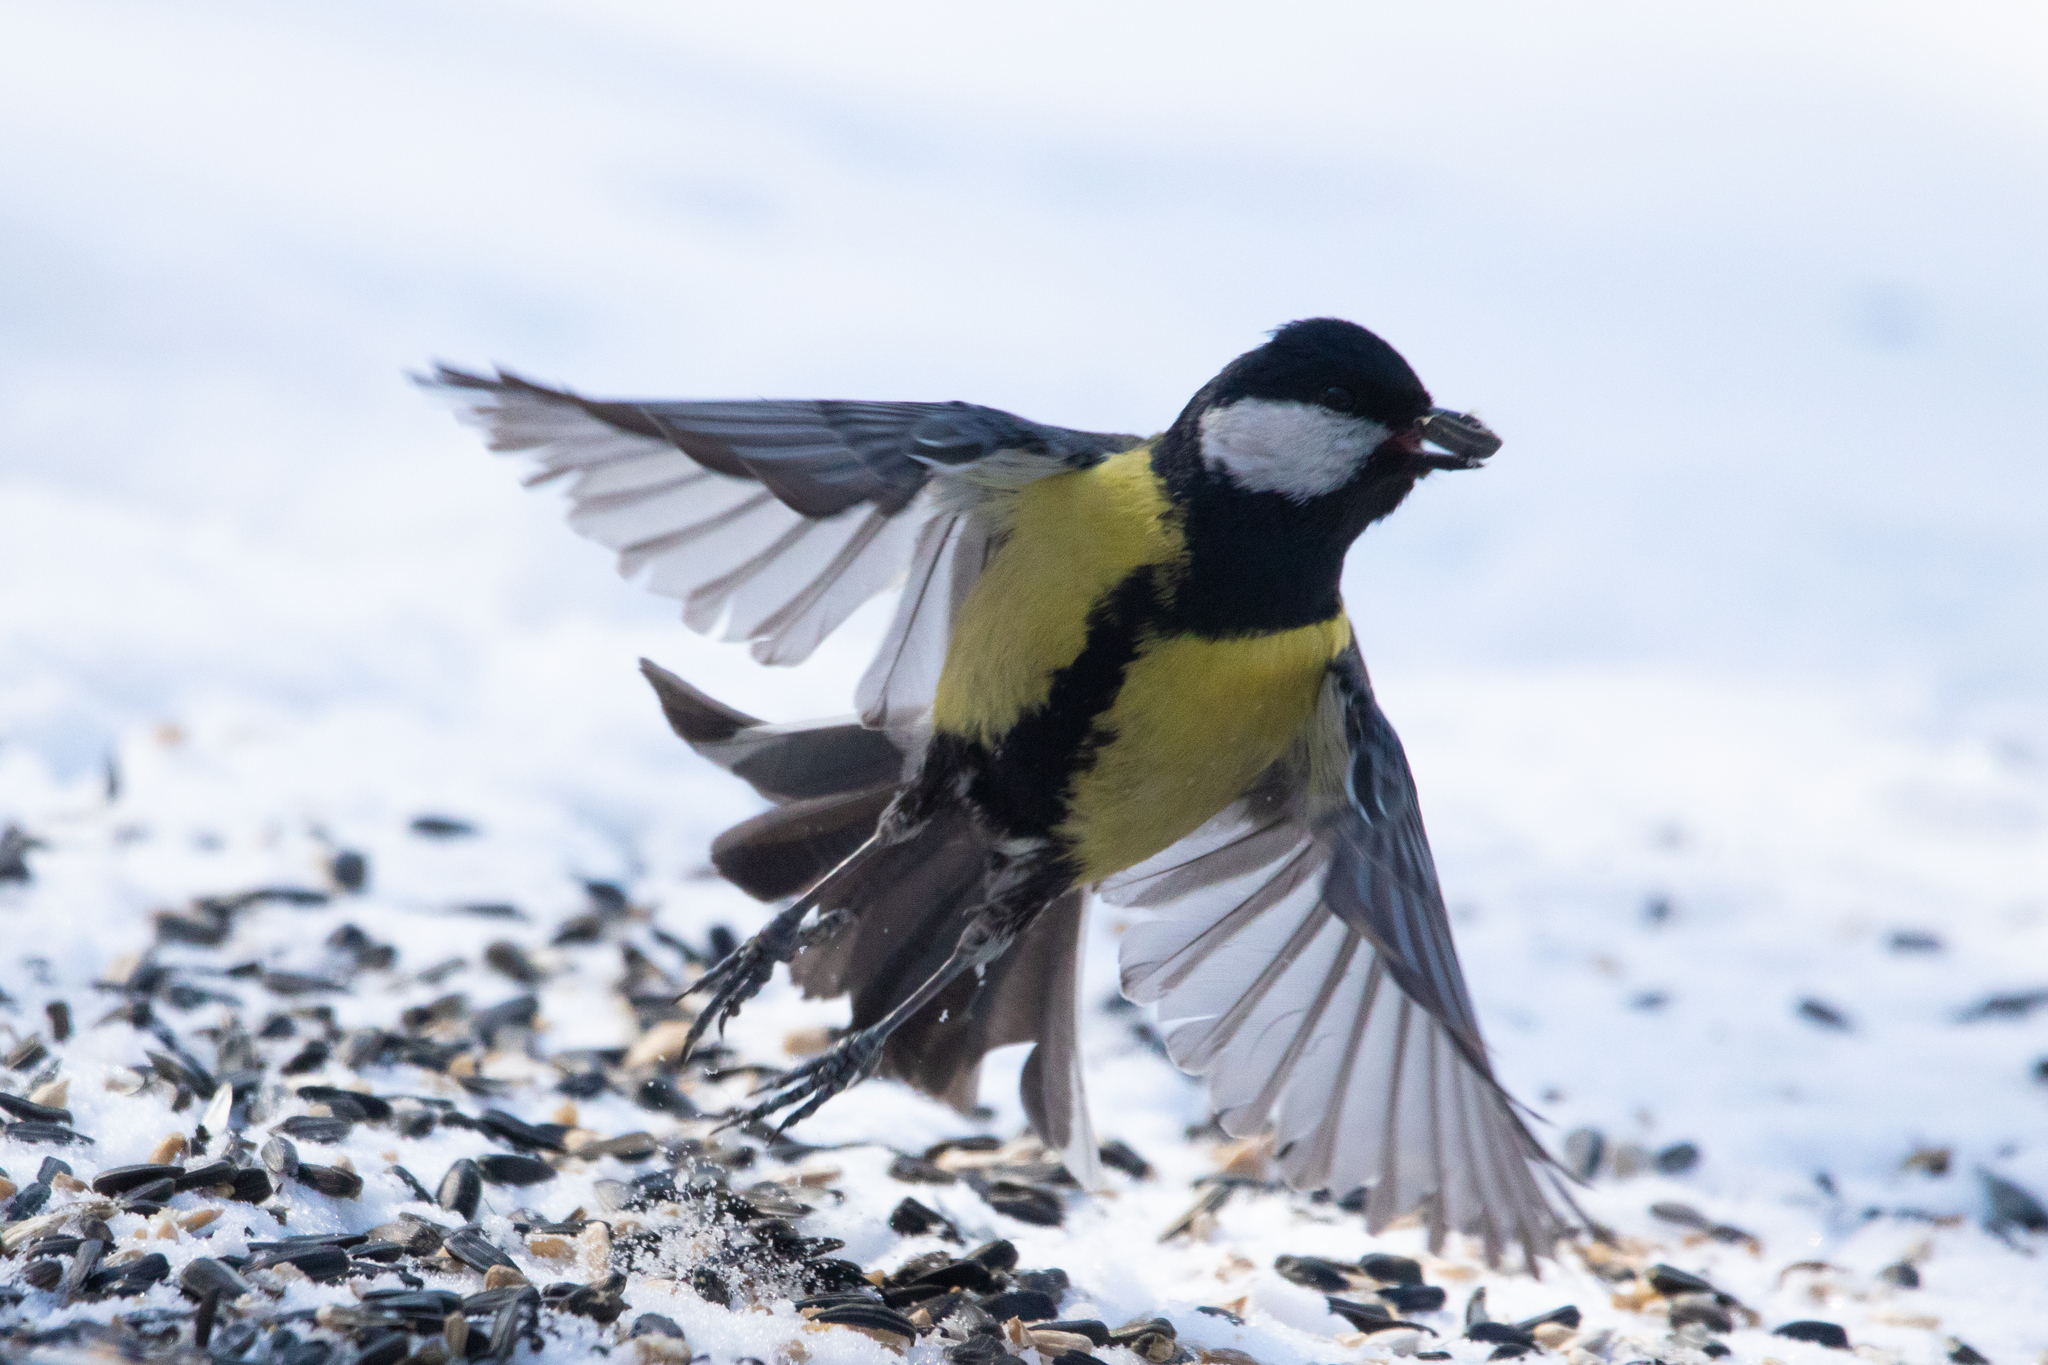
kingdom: Animalia
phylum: Chordata
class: Aves
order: Passeriformes
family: Paridae
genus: Parus
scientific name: Parus major
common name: Great tit
